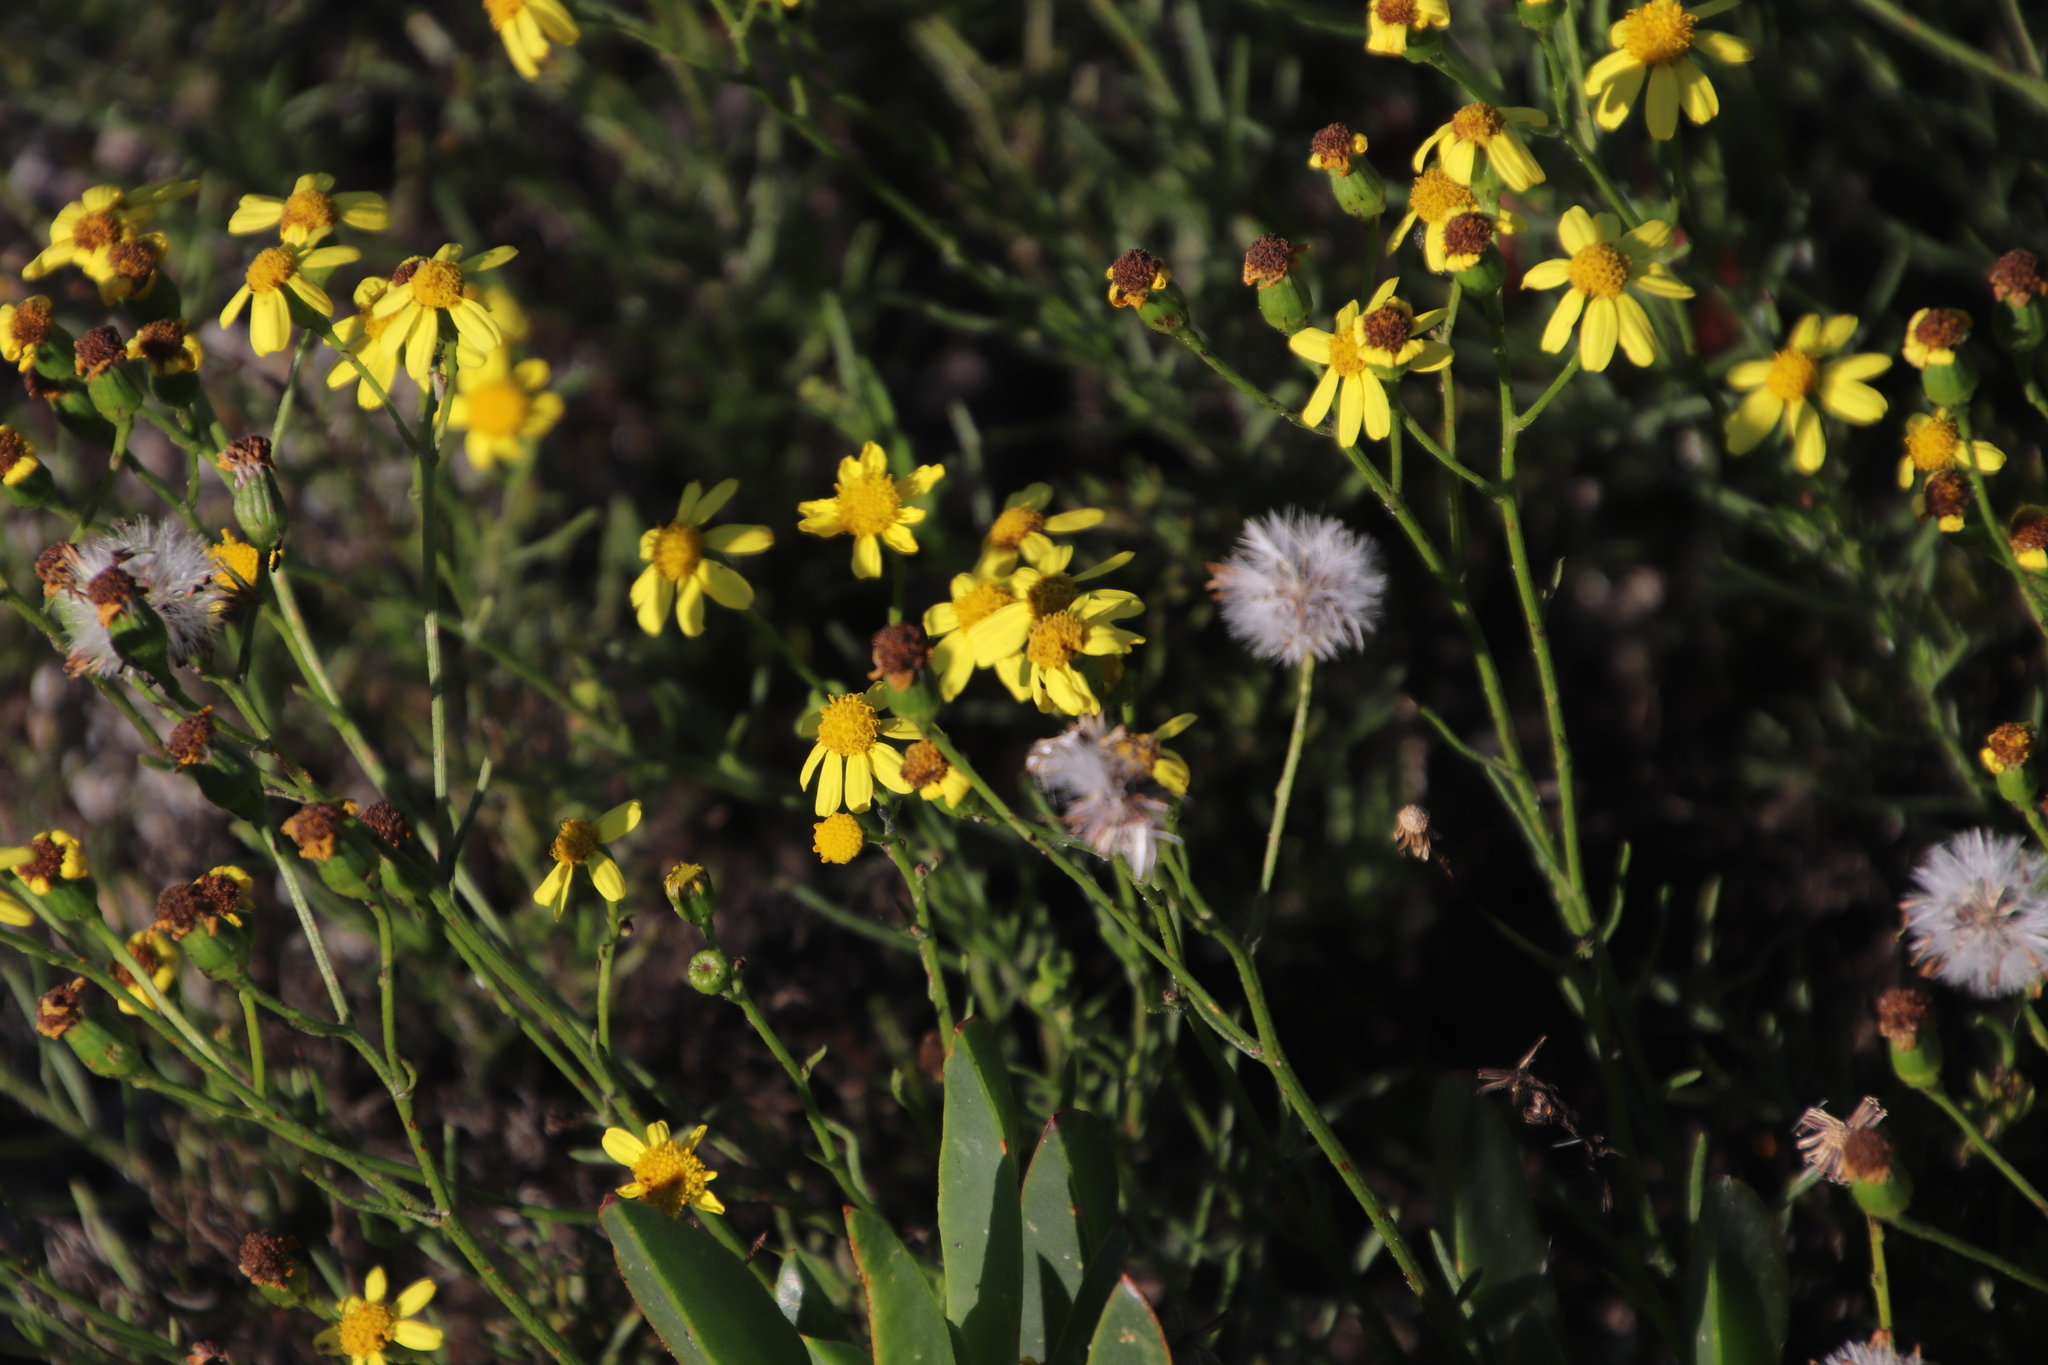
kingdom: Plantae
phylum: Tracheophyta
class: Magnoliopsida
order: Asterales
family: Asteraceae
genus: Senecio
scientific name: Senecio burchellii
